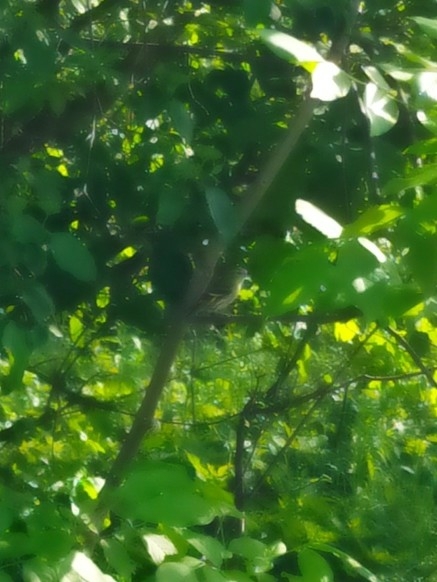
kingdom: Animalia
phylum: Chordata
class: Aves
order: Passeriformes
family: Fringillidae
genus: Spinus
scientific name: Spinus spinus
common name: Eurasian siskin
